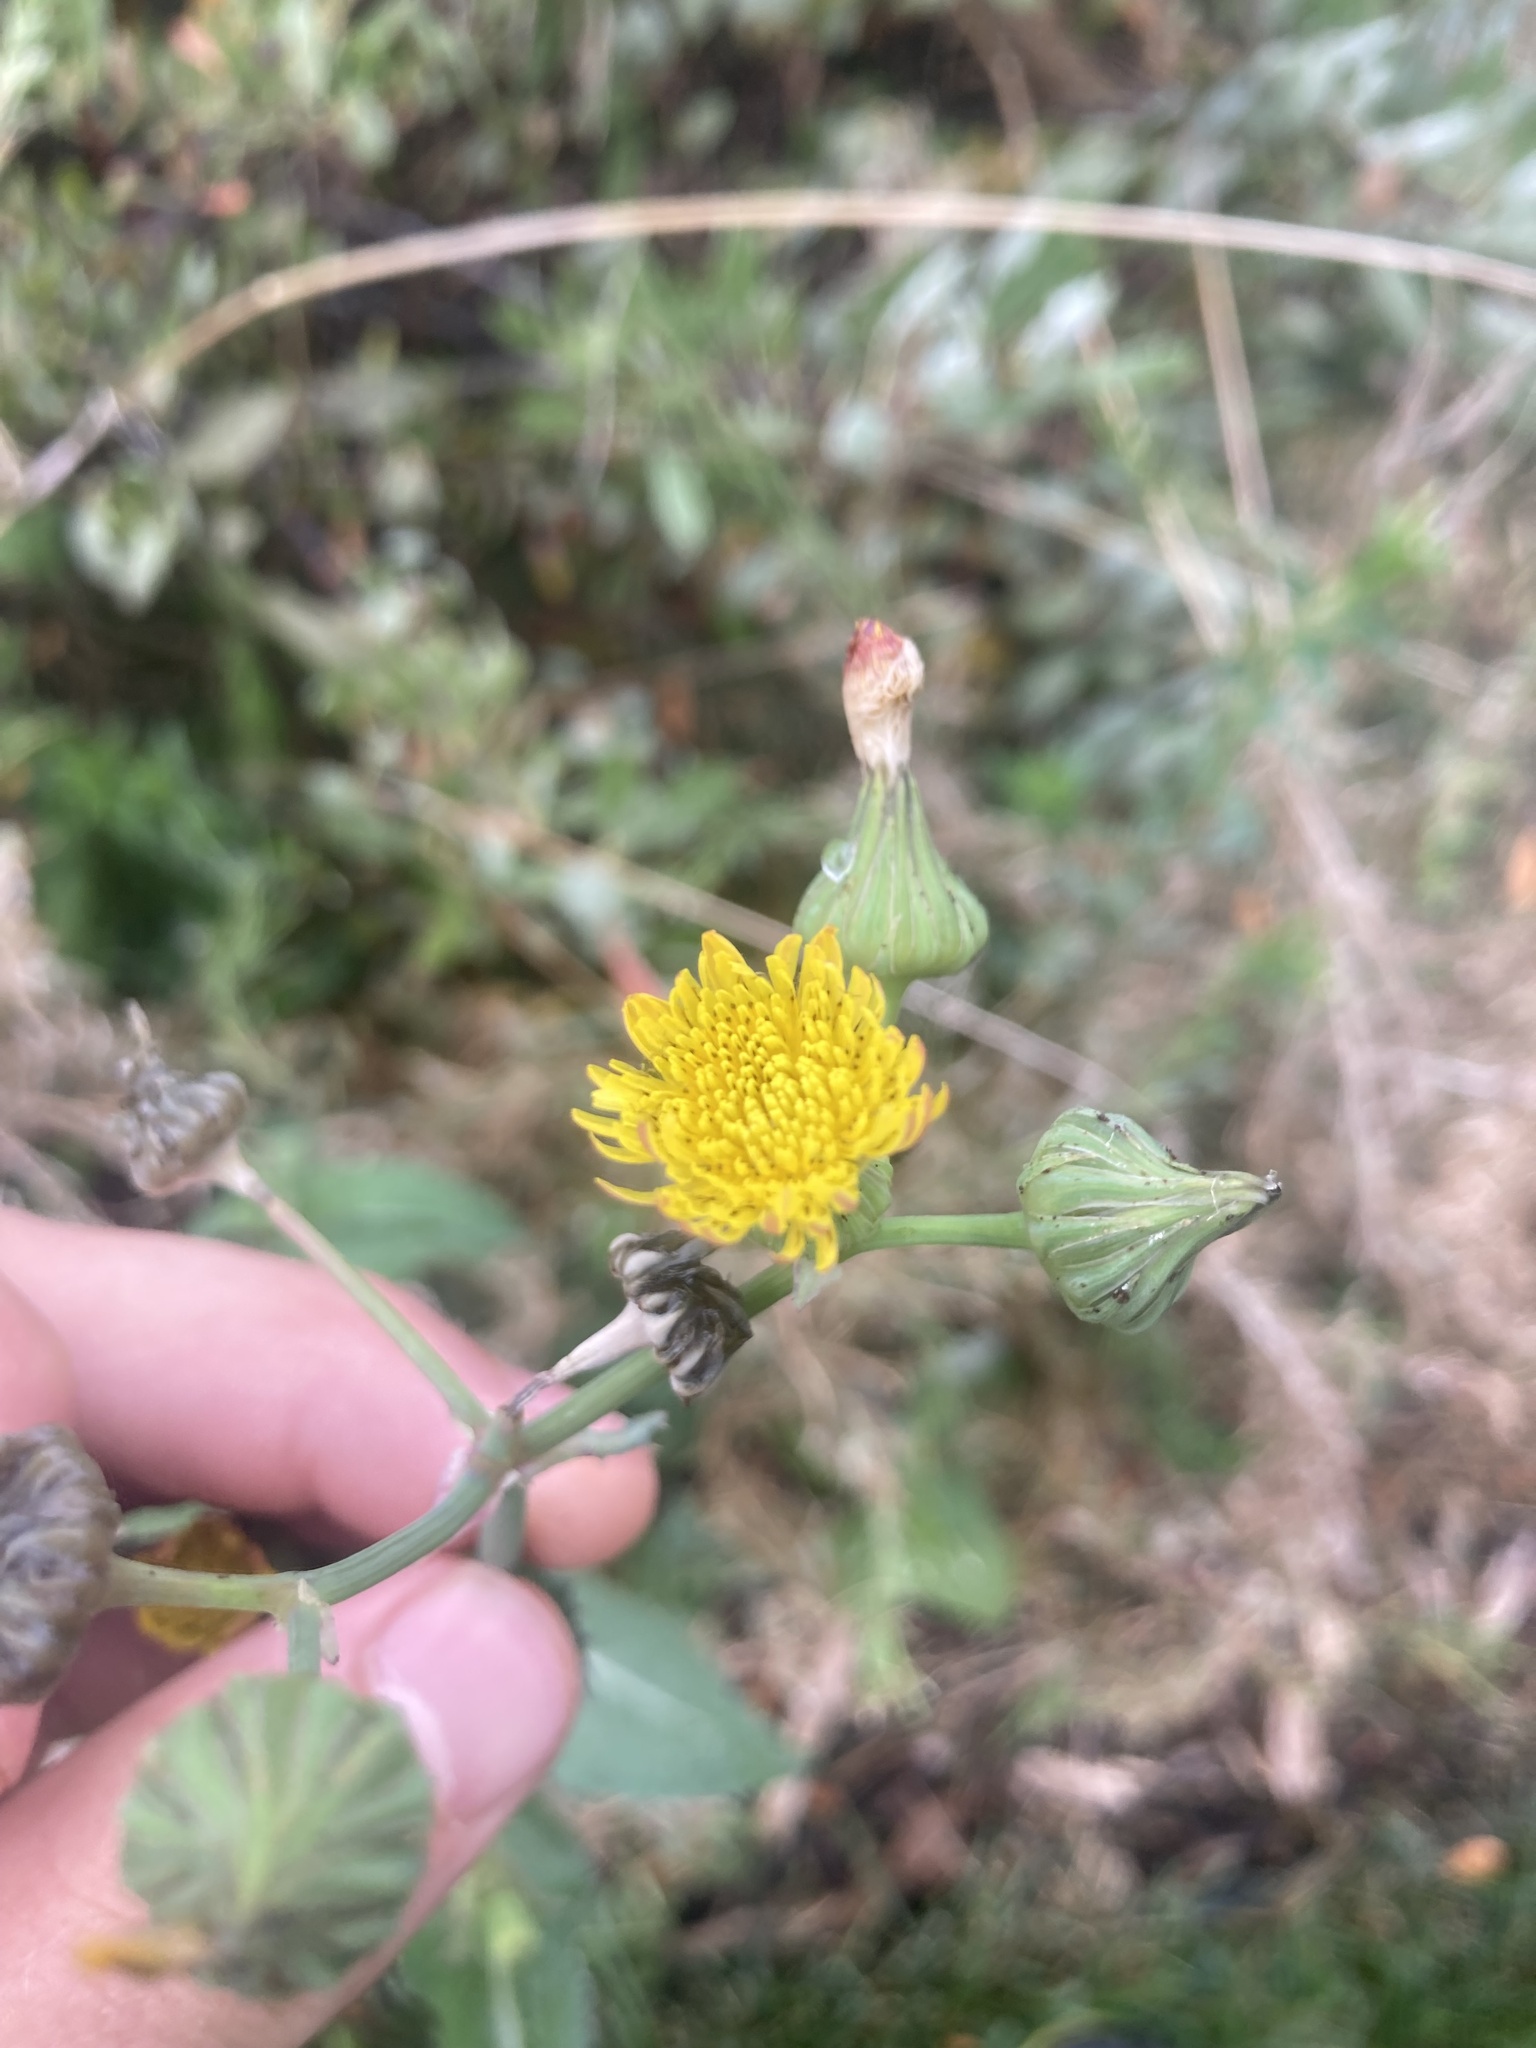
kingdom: Plantae
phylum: Tracheophyta
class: Magnoliopsida
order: Asterales
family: Asteraceae
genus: Sonchus
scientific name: Sonchus asper
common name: Prickly sow-thistle
